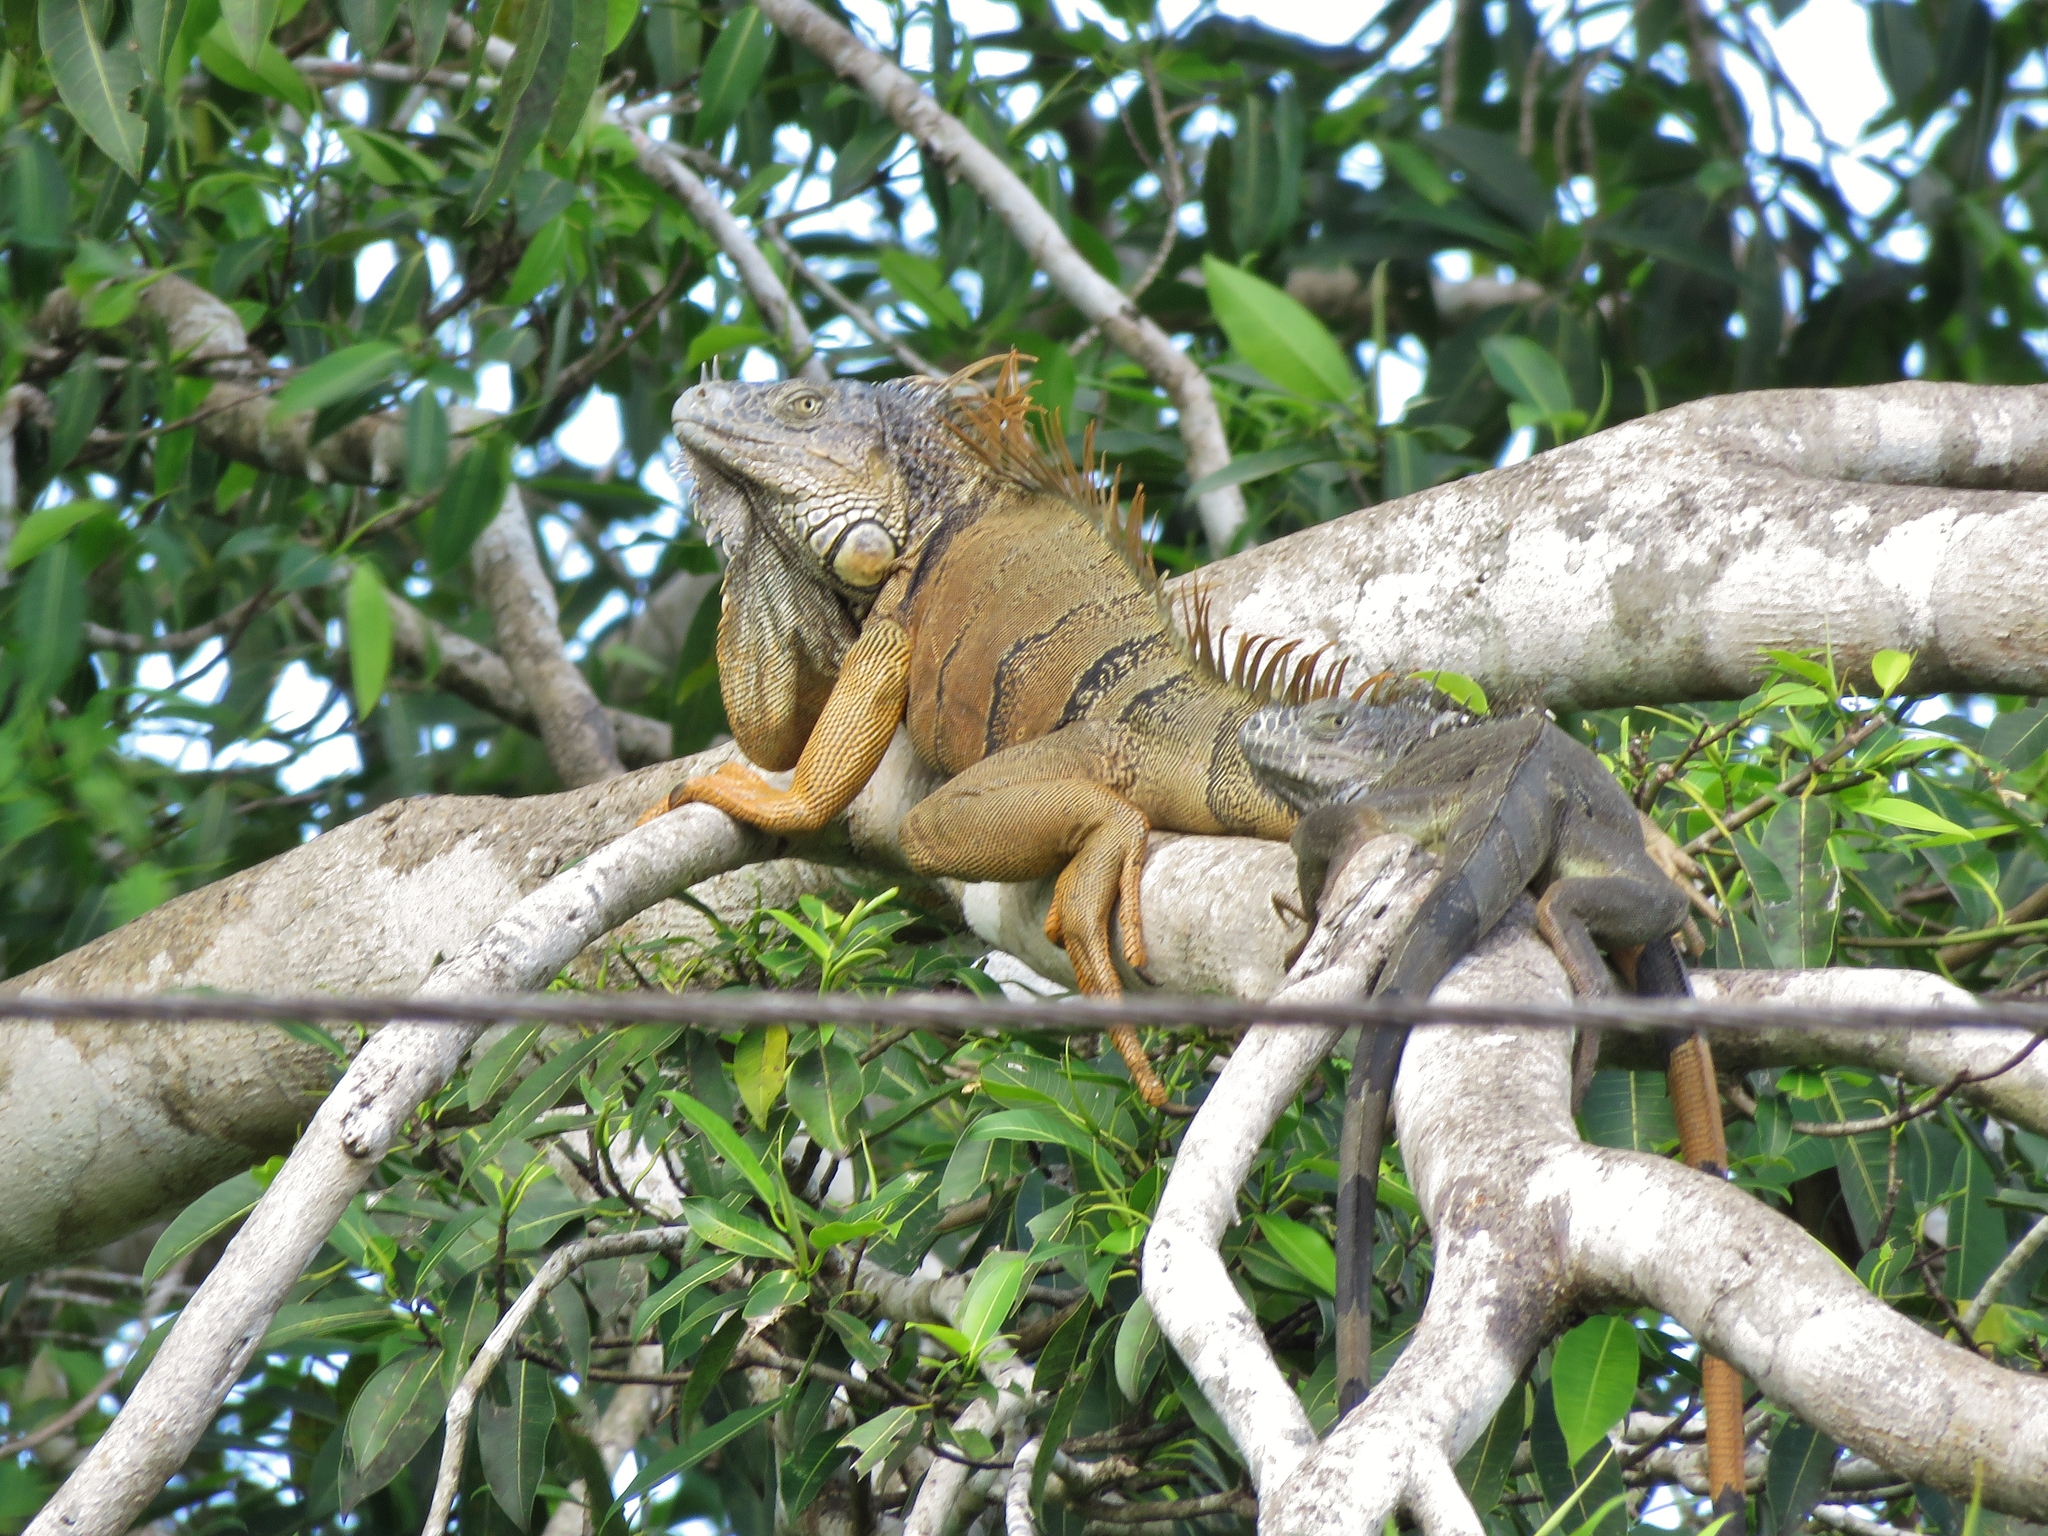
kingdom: Animalia
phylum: Chordata
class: Squamata
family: Iguanidae
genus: Iguana
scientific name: Iguana iguana
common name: Green iguana
